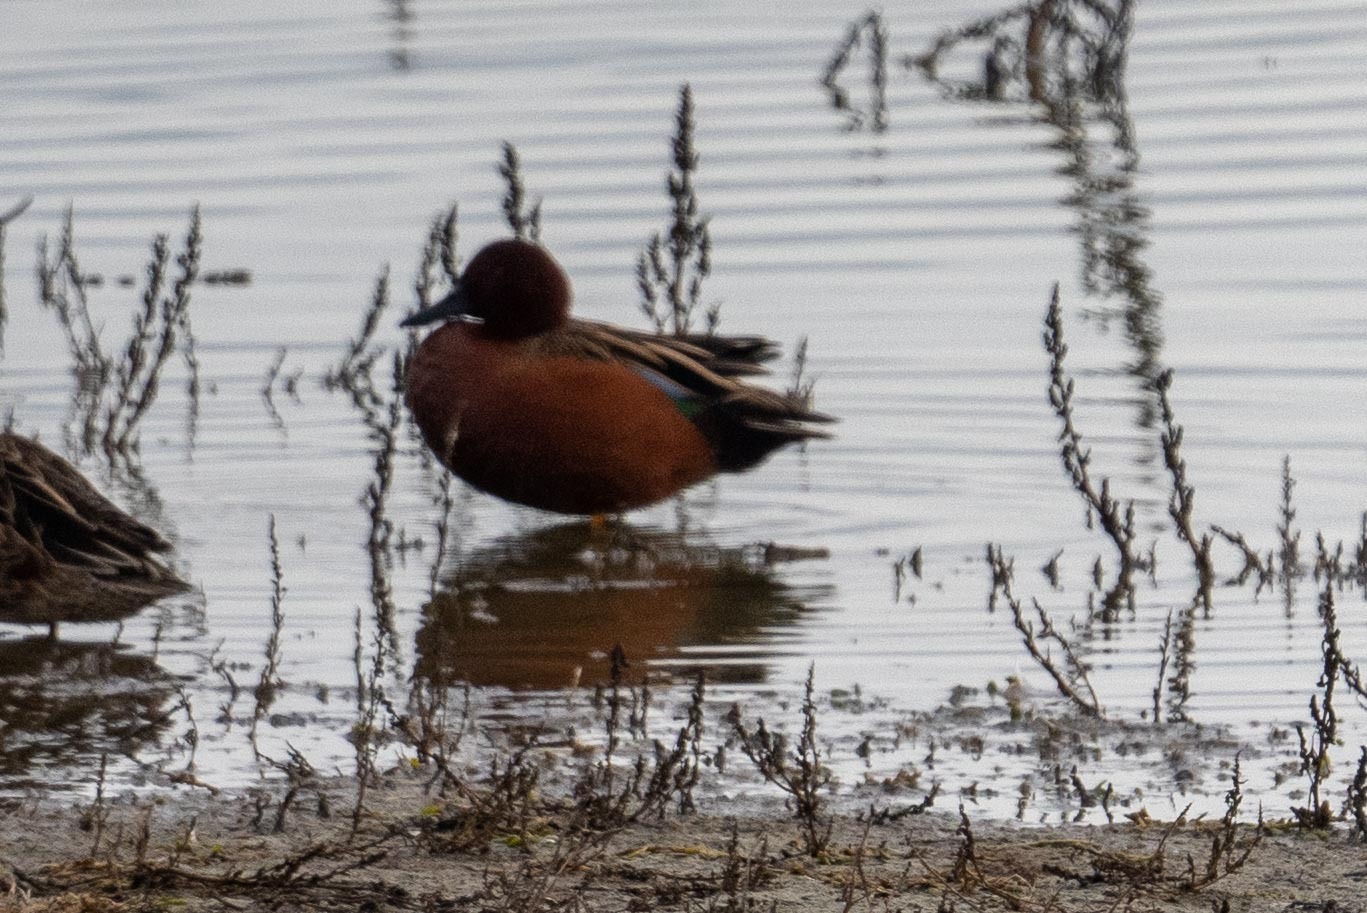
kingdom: Animalia
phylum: Chordata
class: Aves
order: Anseriformes
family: Anatidae
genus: Spatula
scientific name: Spatula cyanoptera
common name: Cinnamon teal
